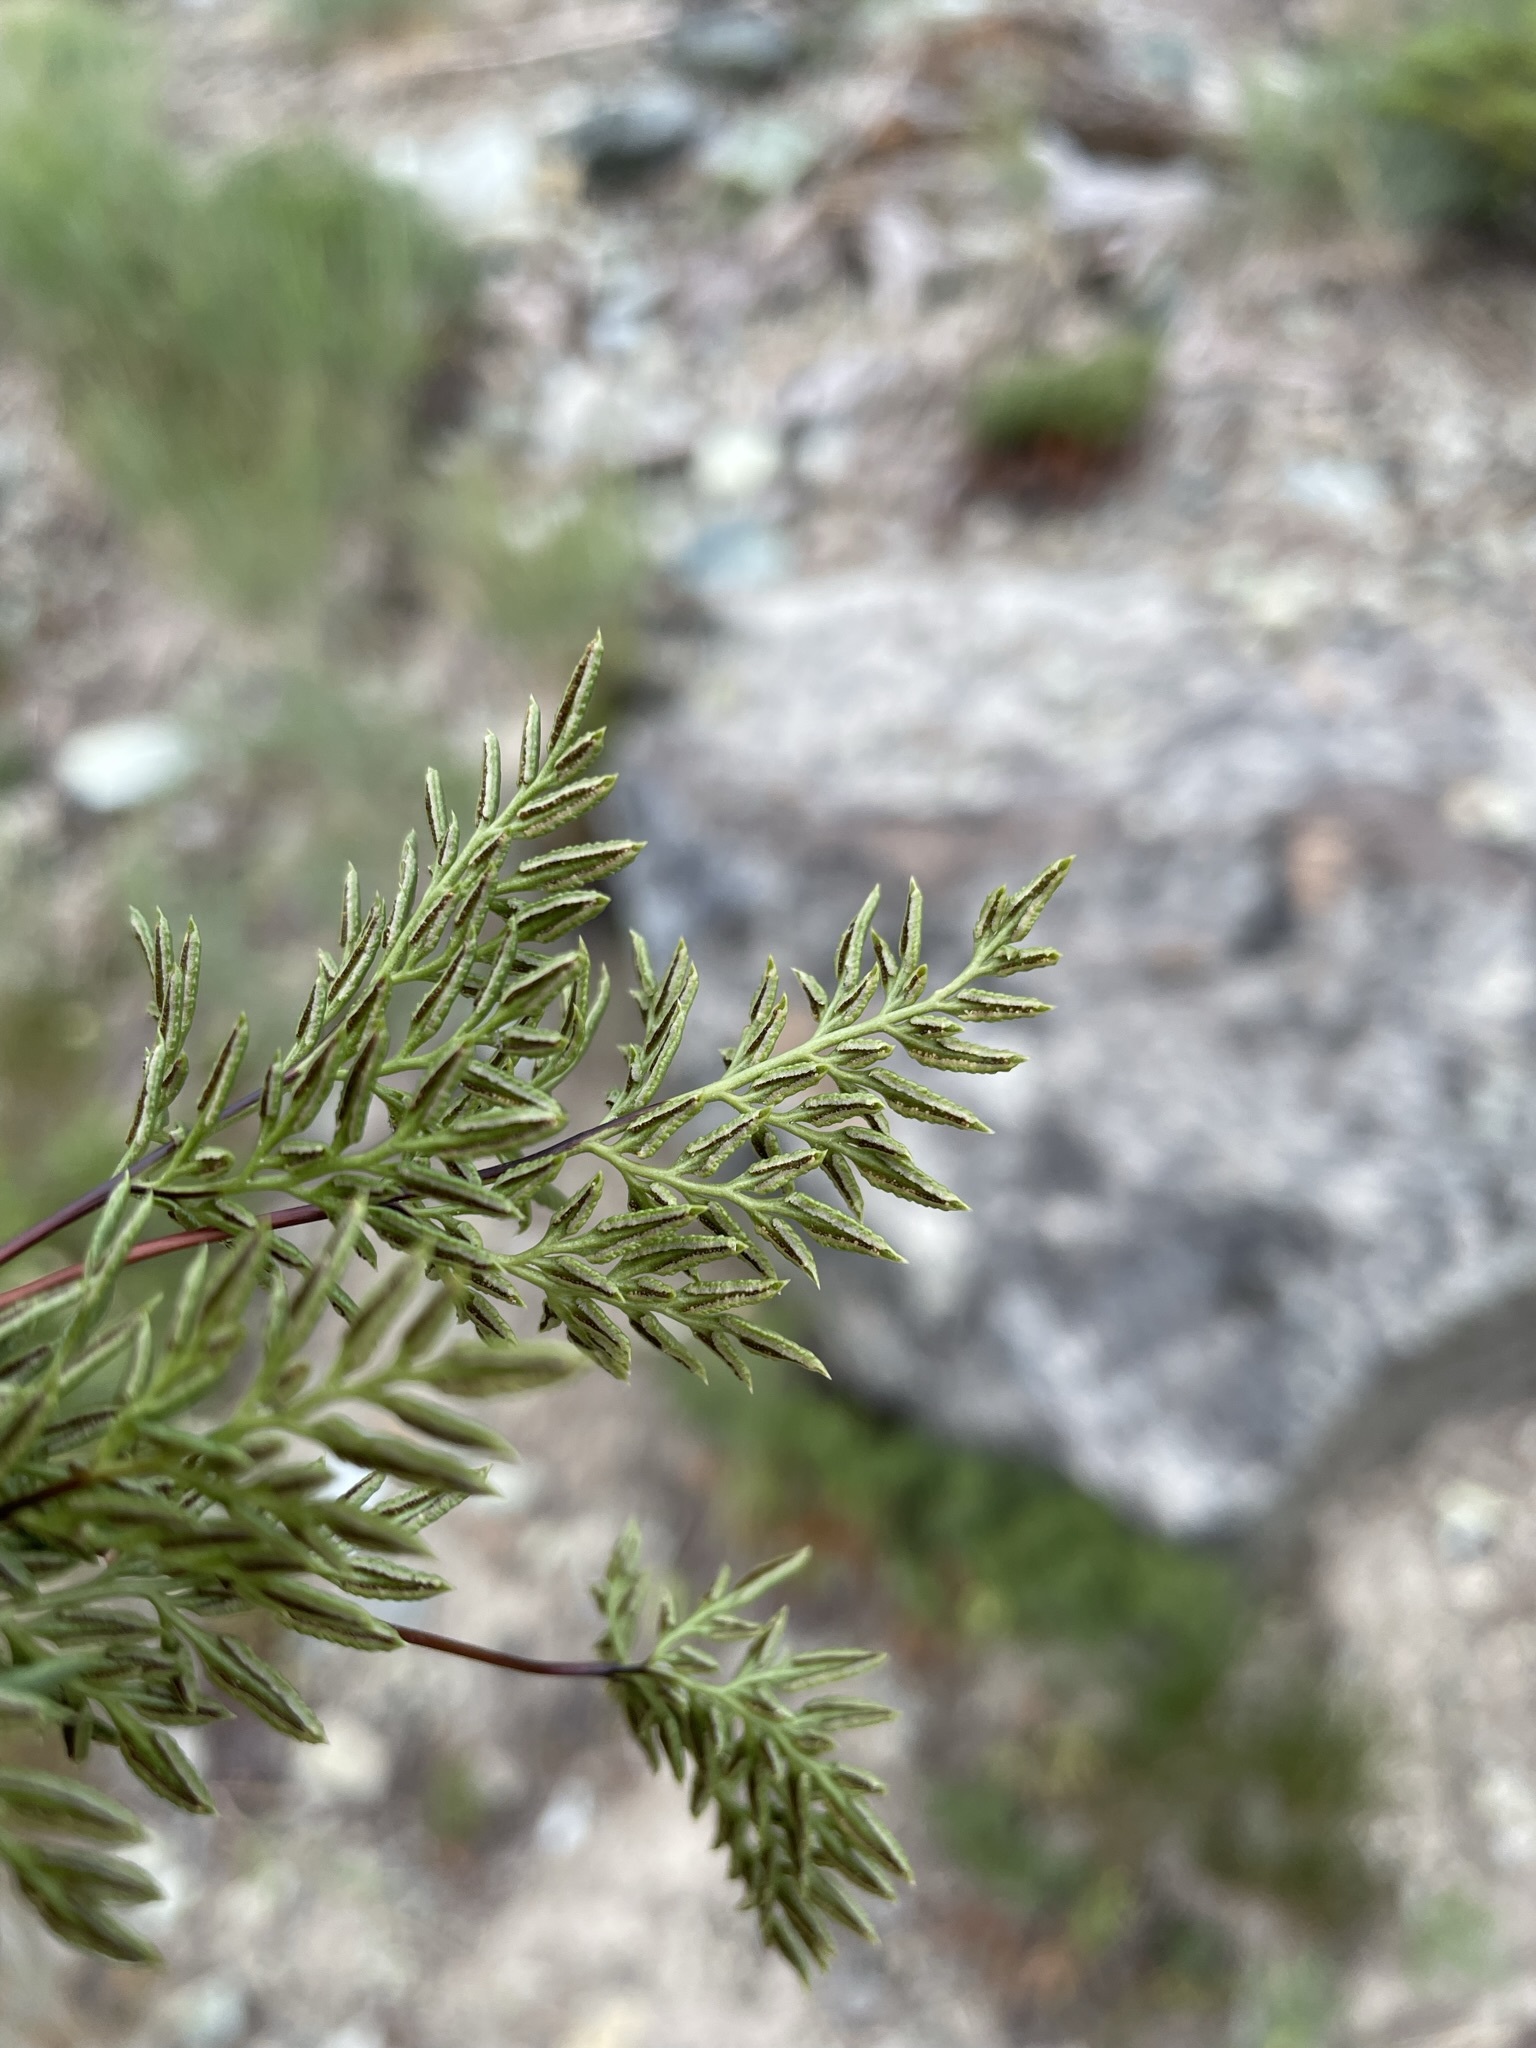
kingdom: Plantae
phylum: Tracheophyta
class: Polypodiopsida
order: Polypodiales
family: Pteridaceae
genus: Aspidotis
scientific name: Aspidotis densa
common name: Indian's dream
